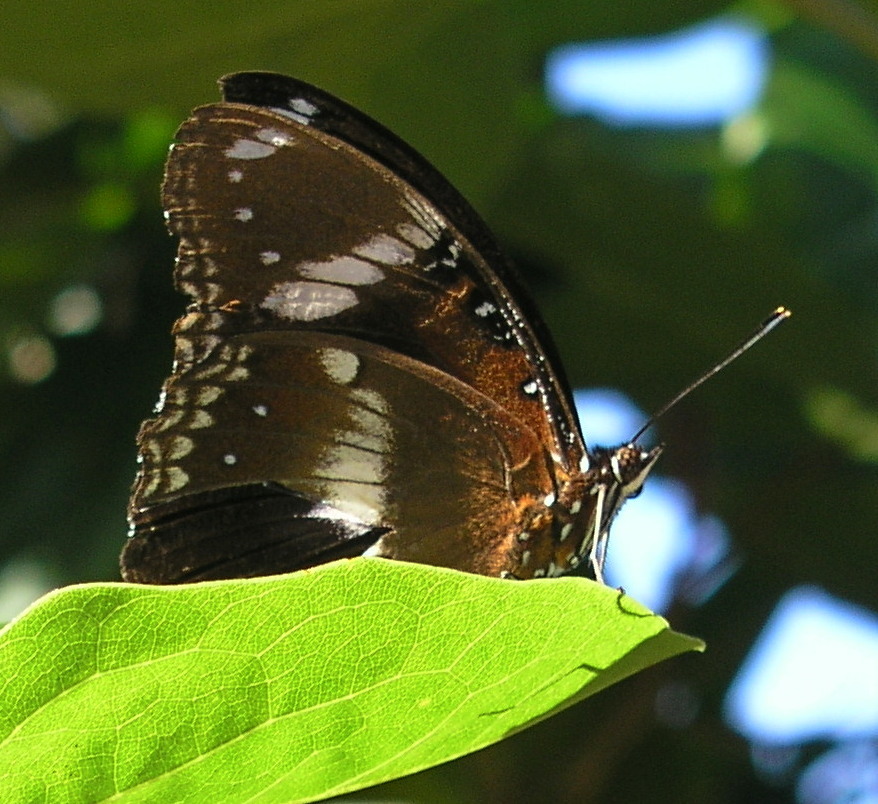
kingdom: Animalia
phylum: Arthropoda
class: Insecta
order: Lepidoptera
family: Nymphalidae
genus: Hypolimnas
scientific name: Hypolimnas bolina
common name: Great eggfly
